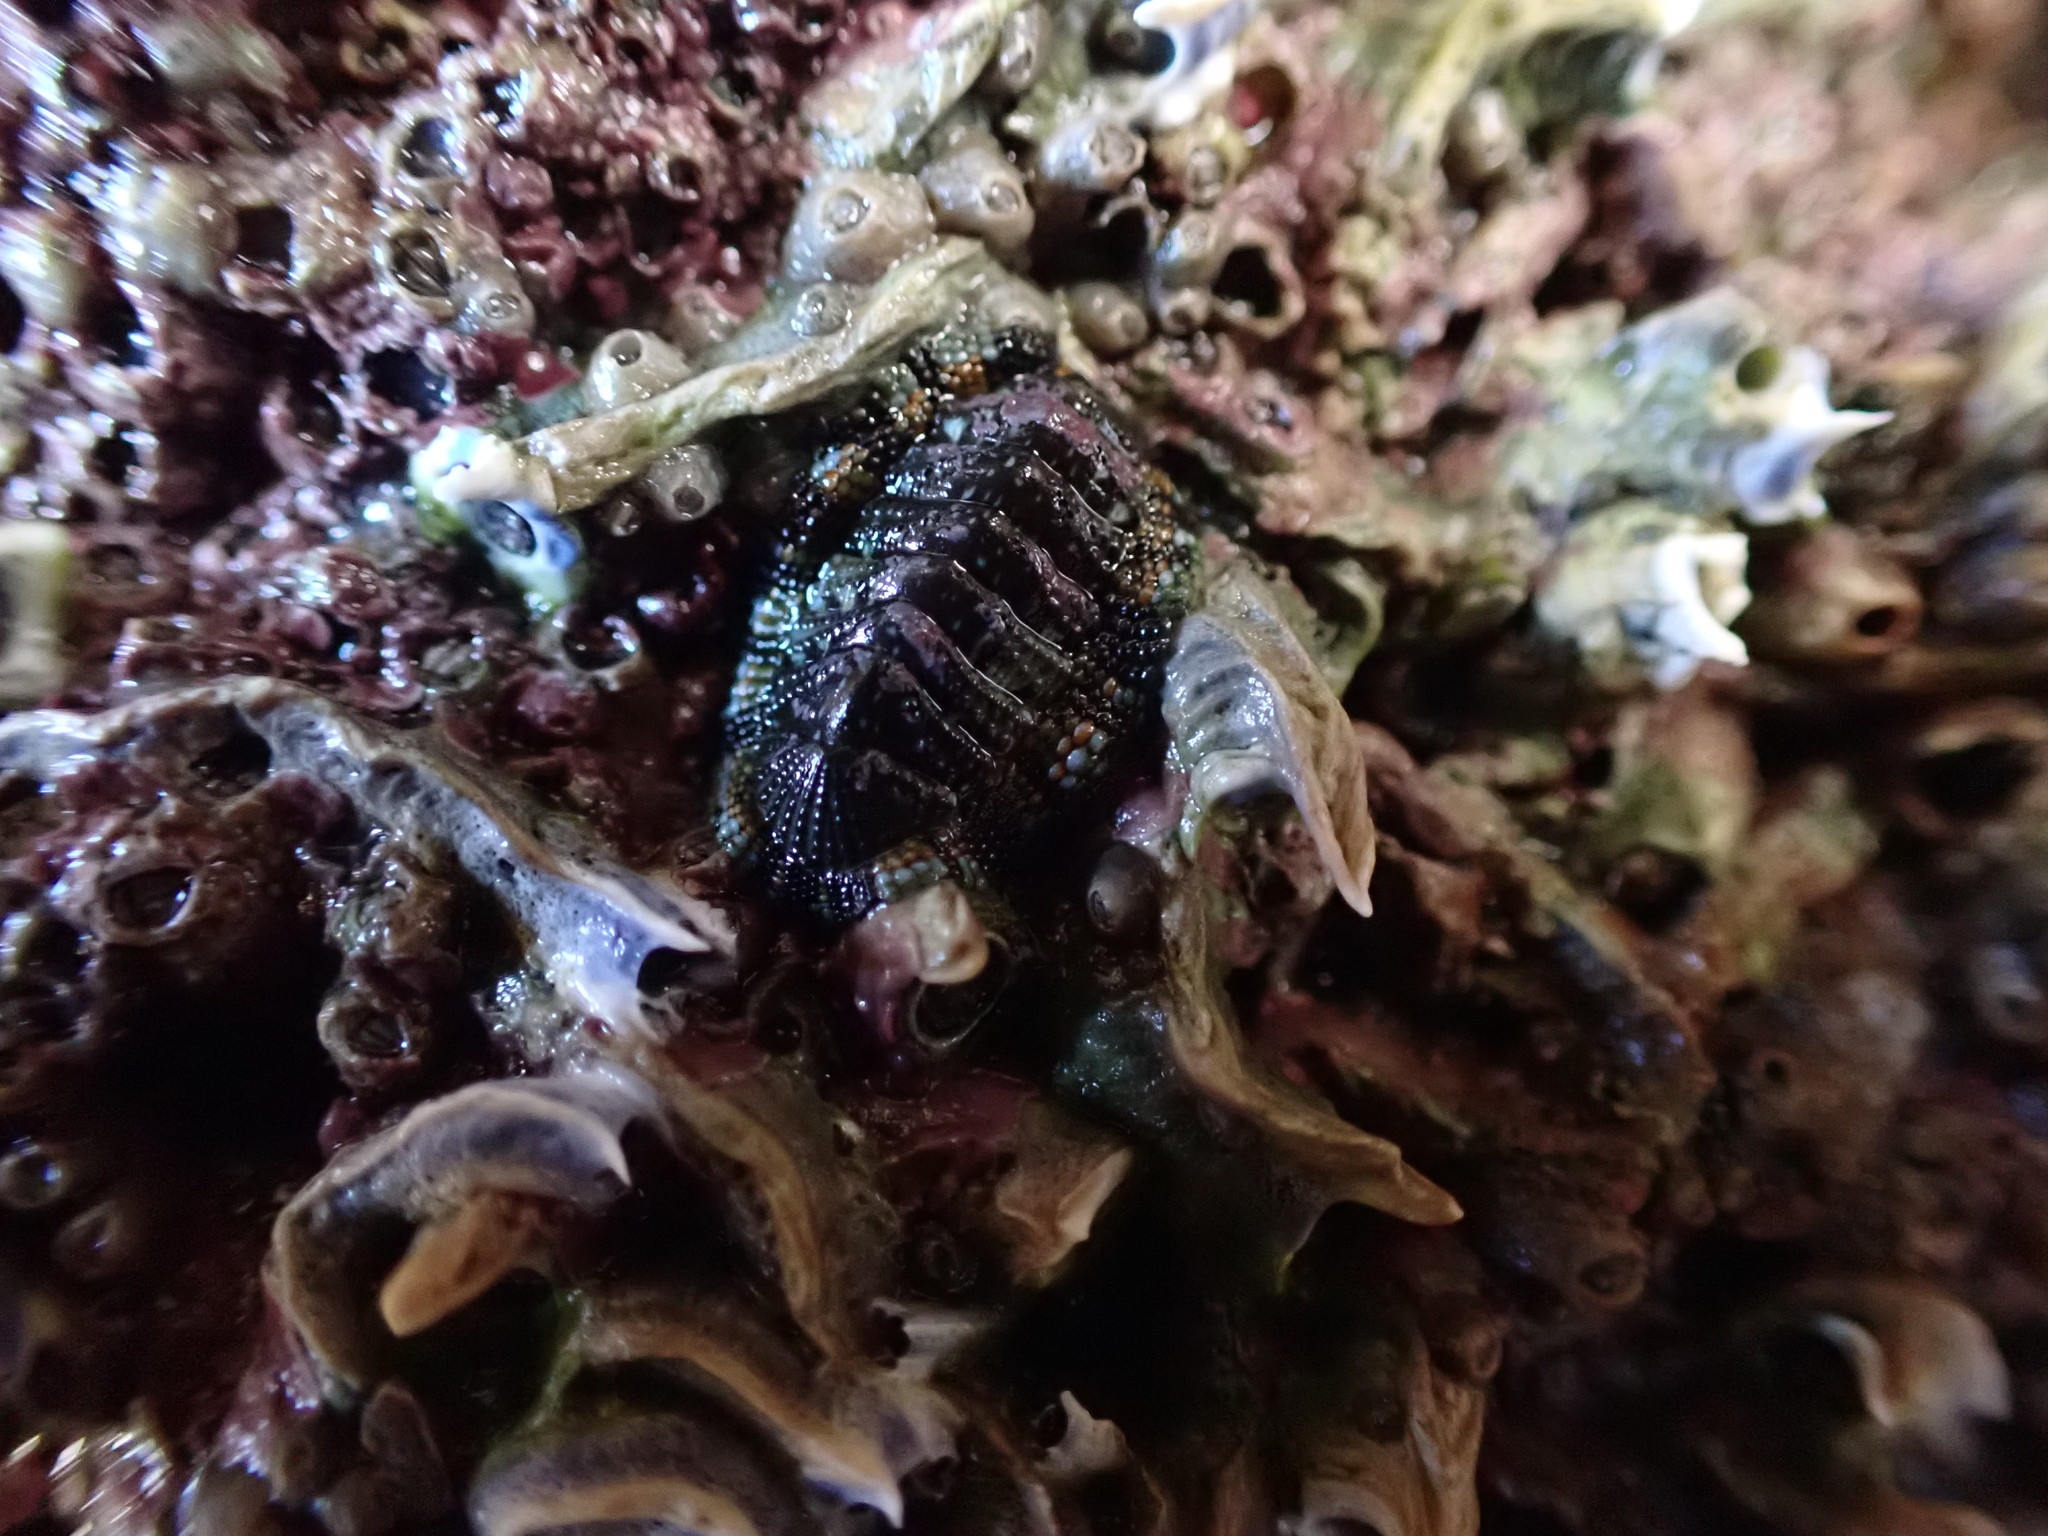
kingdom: Animalia
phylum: Mollusca
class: Polyplacophora
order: Chitonida
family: Chitonidae
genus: Sypharochiton
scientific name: Sypharochiton sinclairi
